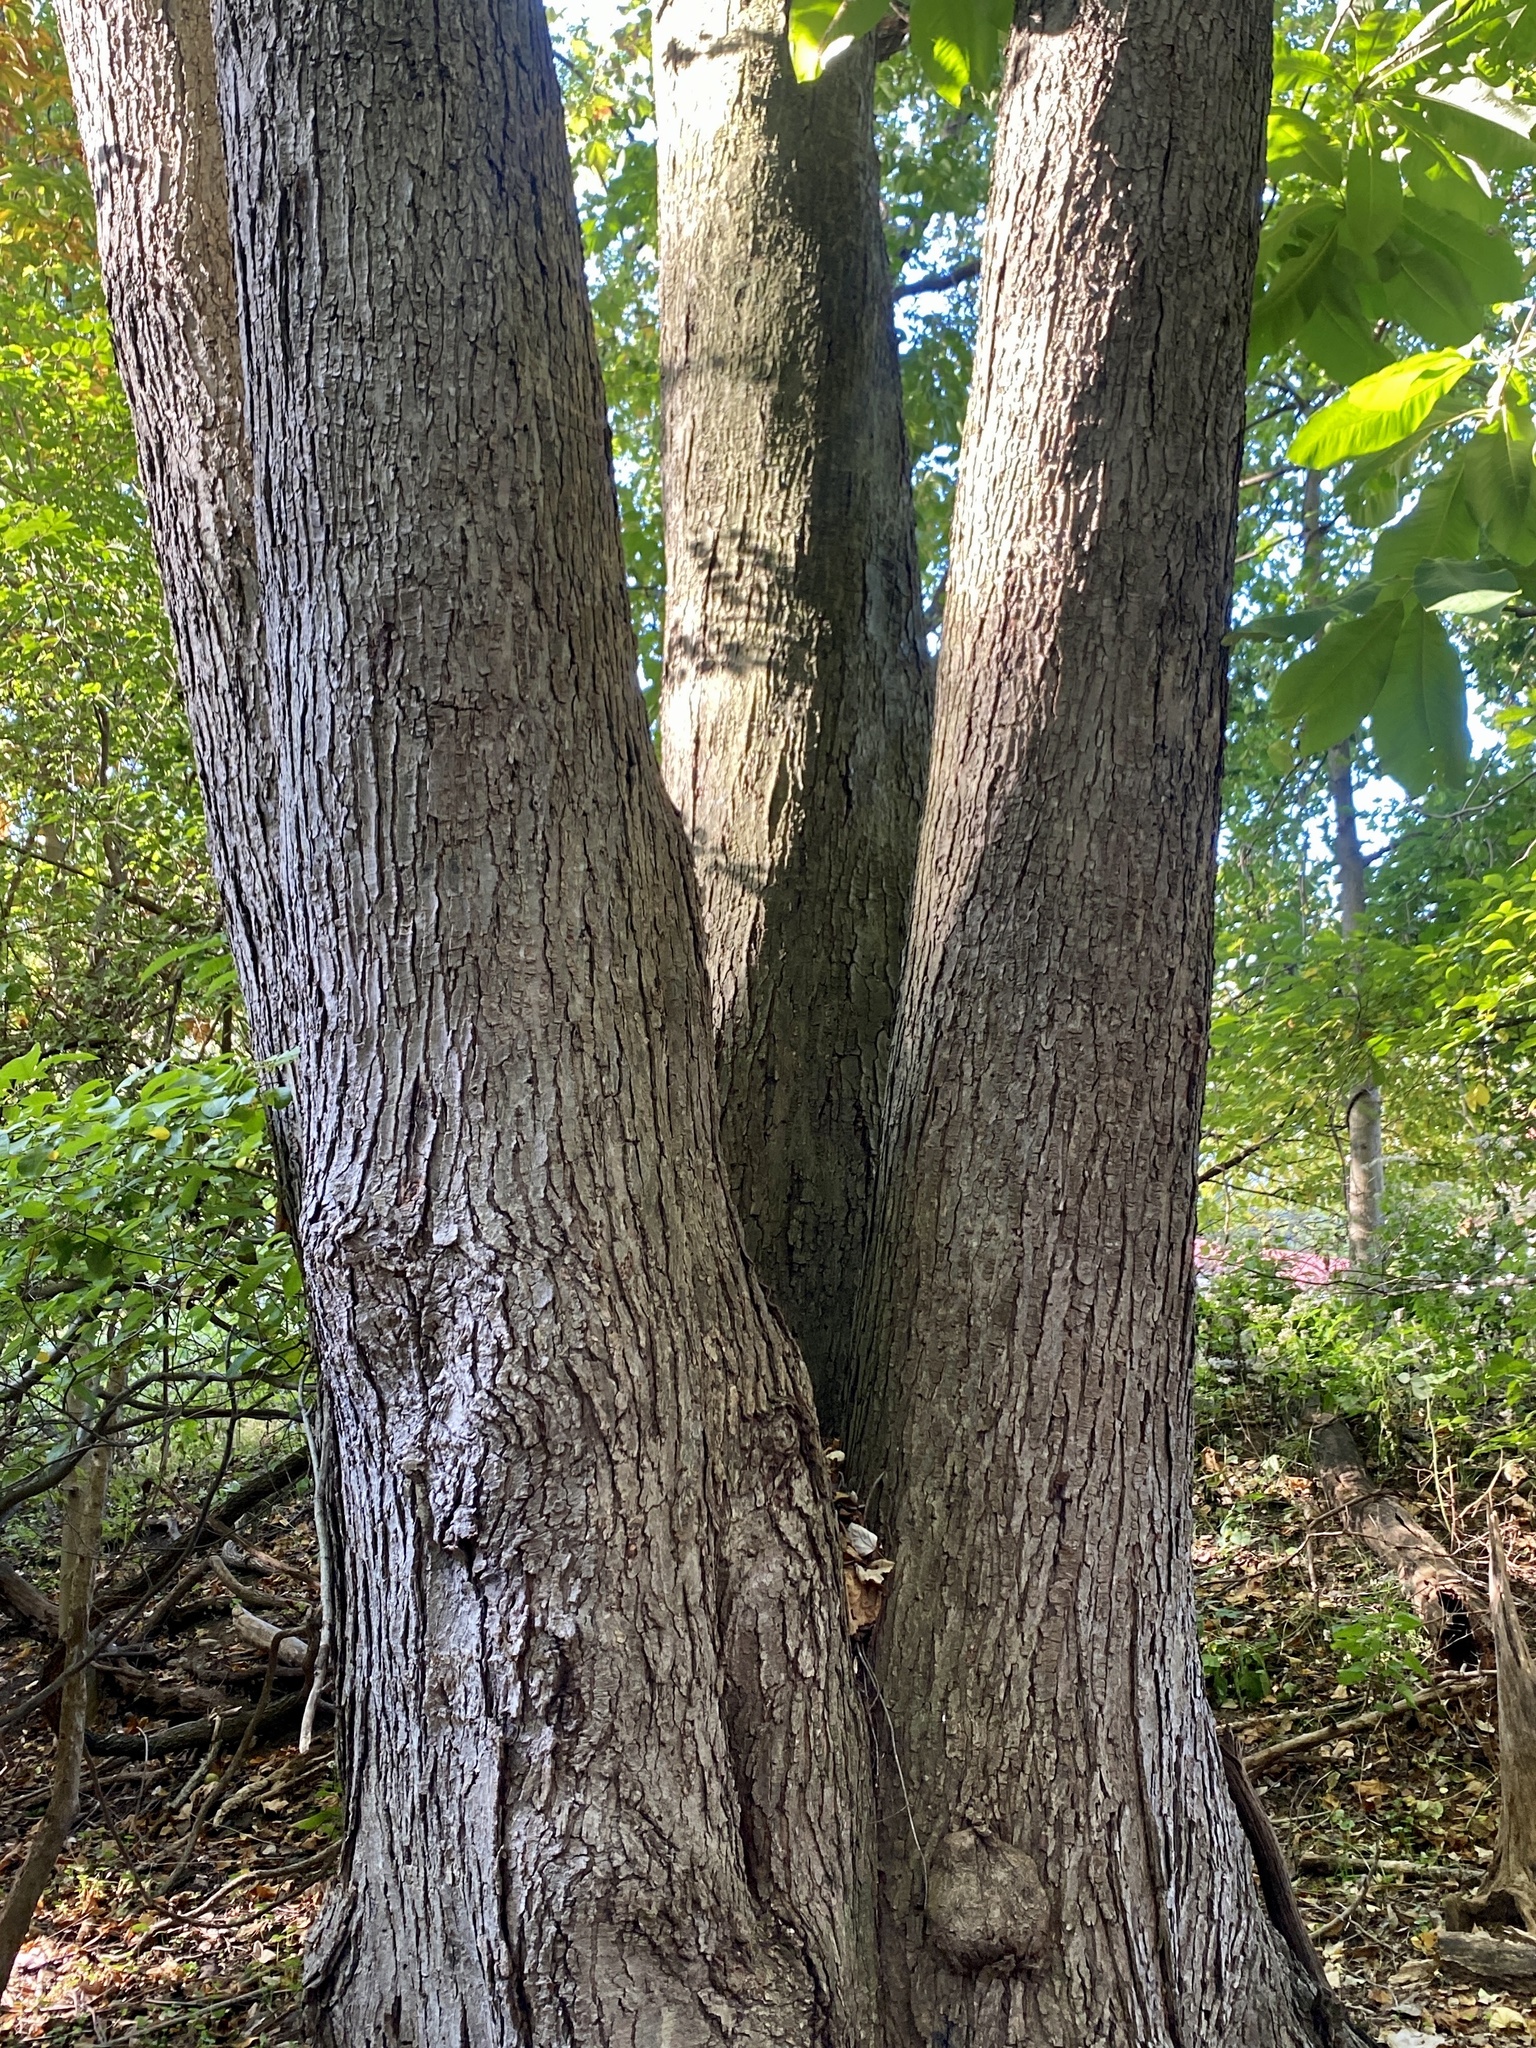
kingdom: Plantae
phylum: Tracheophyta
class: Magnoliopsida
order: Sapindales
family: Sapindaceae
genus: Acer
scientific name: Acer rubrum
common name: Red maple
